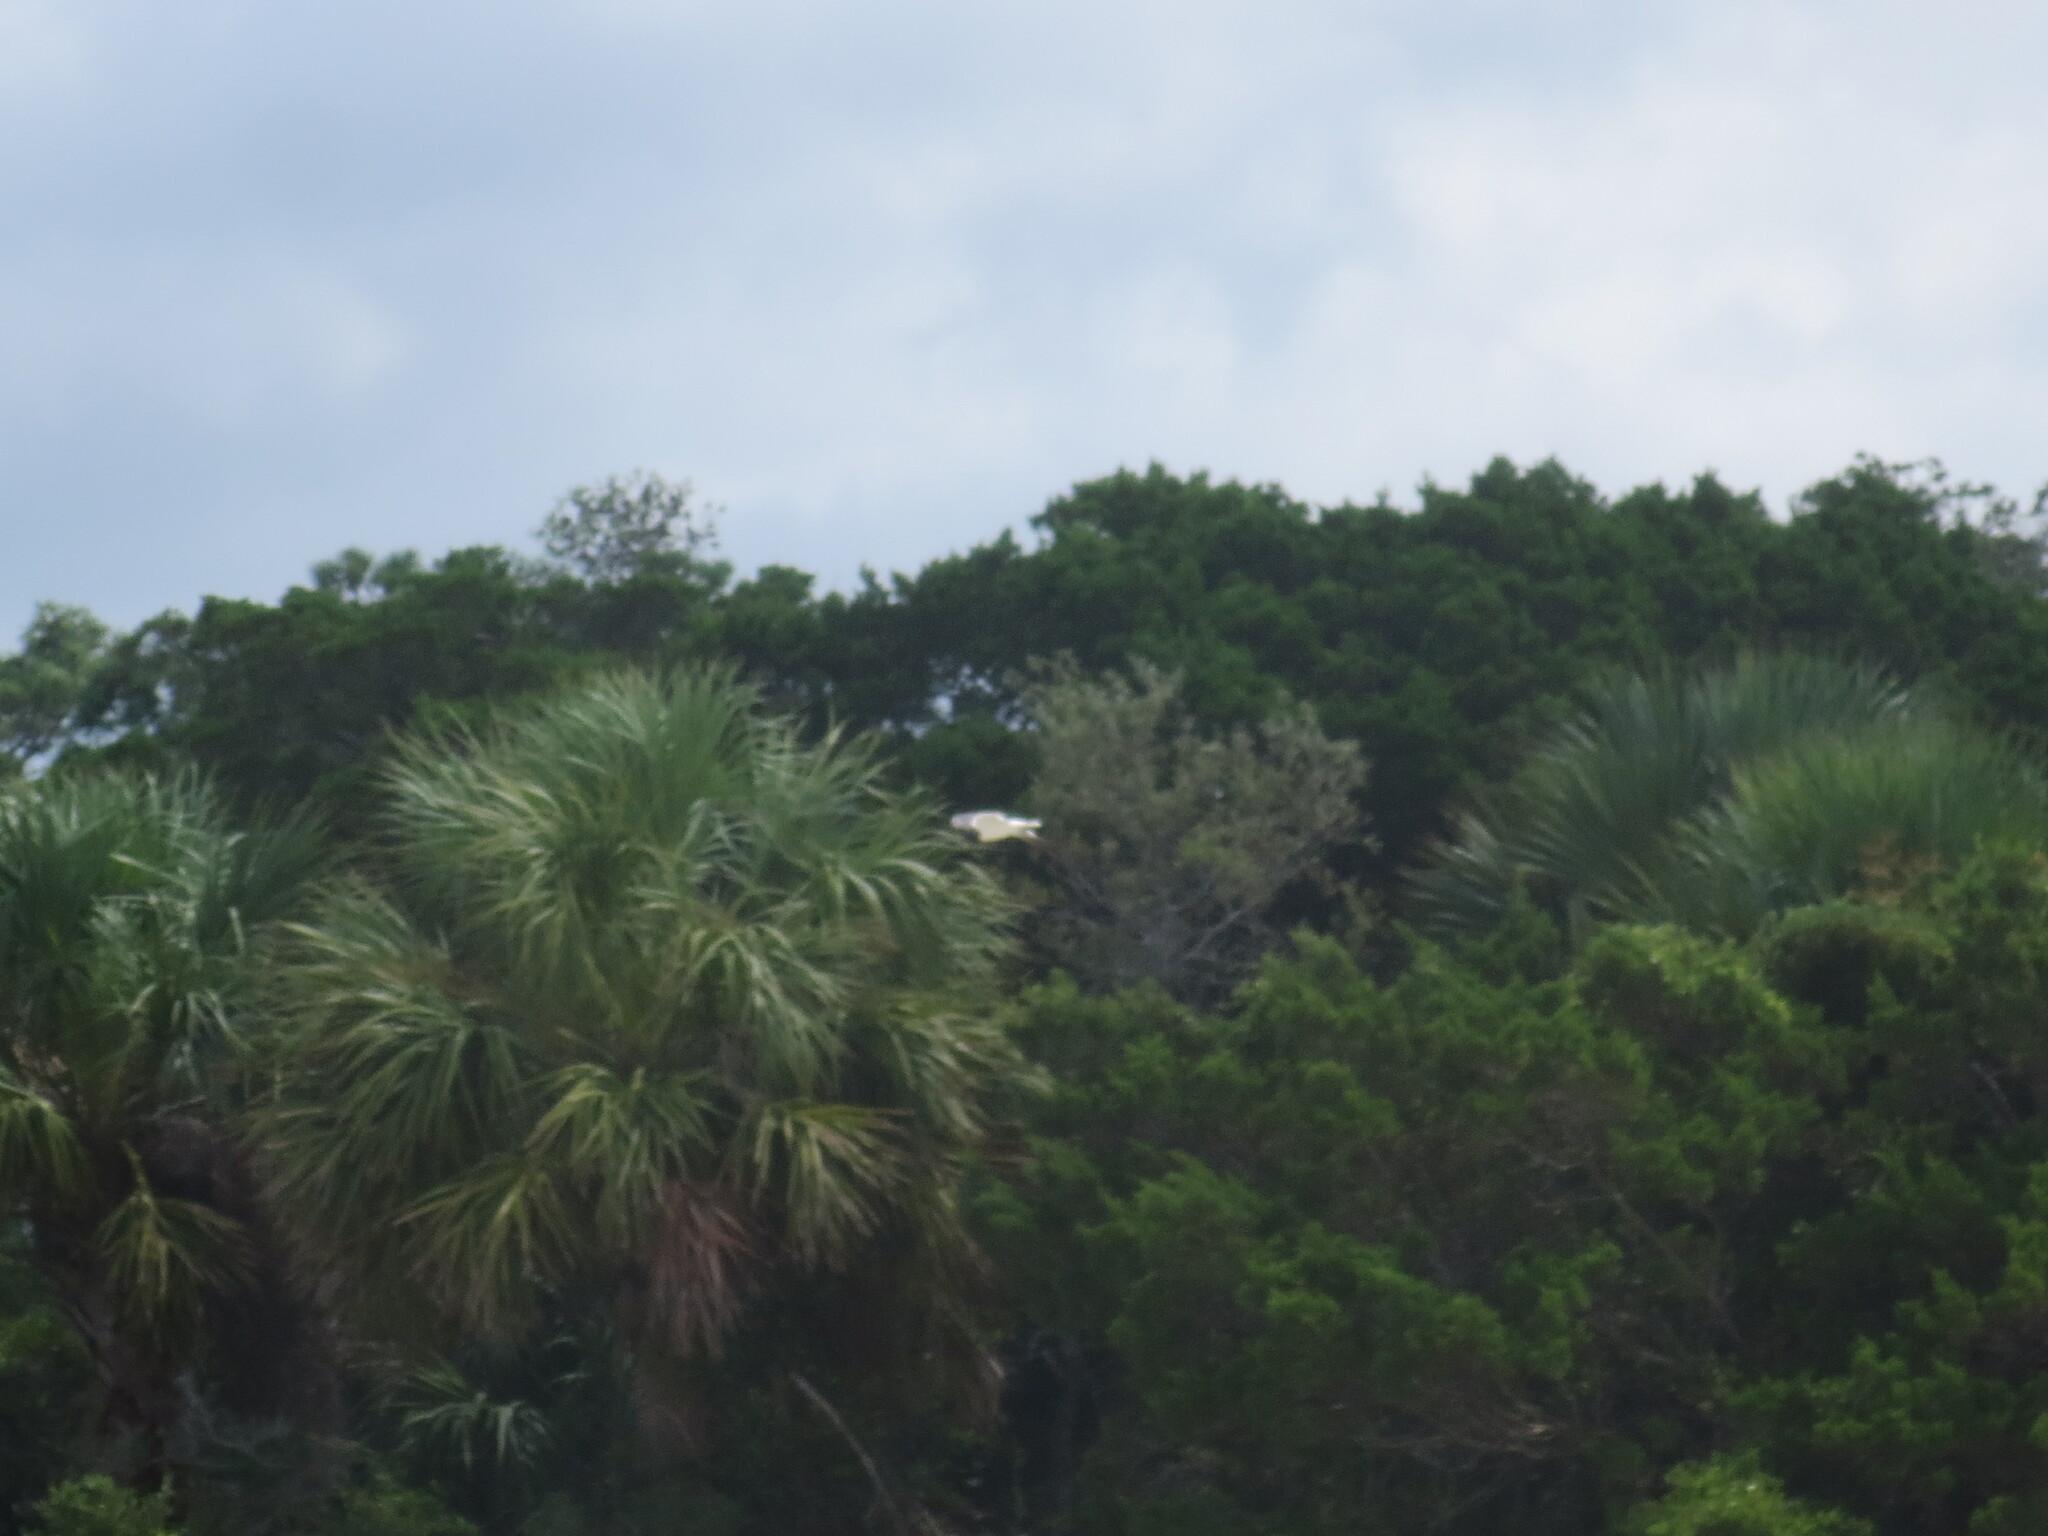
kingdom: Animalia
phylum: Chordata
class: Aves
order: Pelecaniformes
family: Ardeidae
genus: Ardea
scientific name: Ardea alba
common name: Great egret
